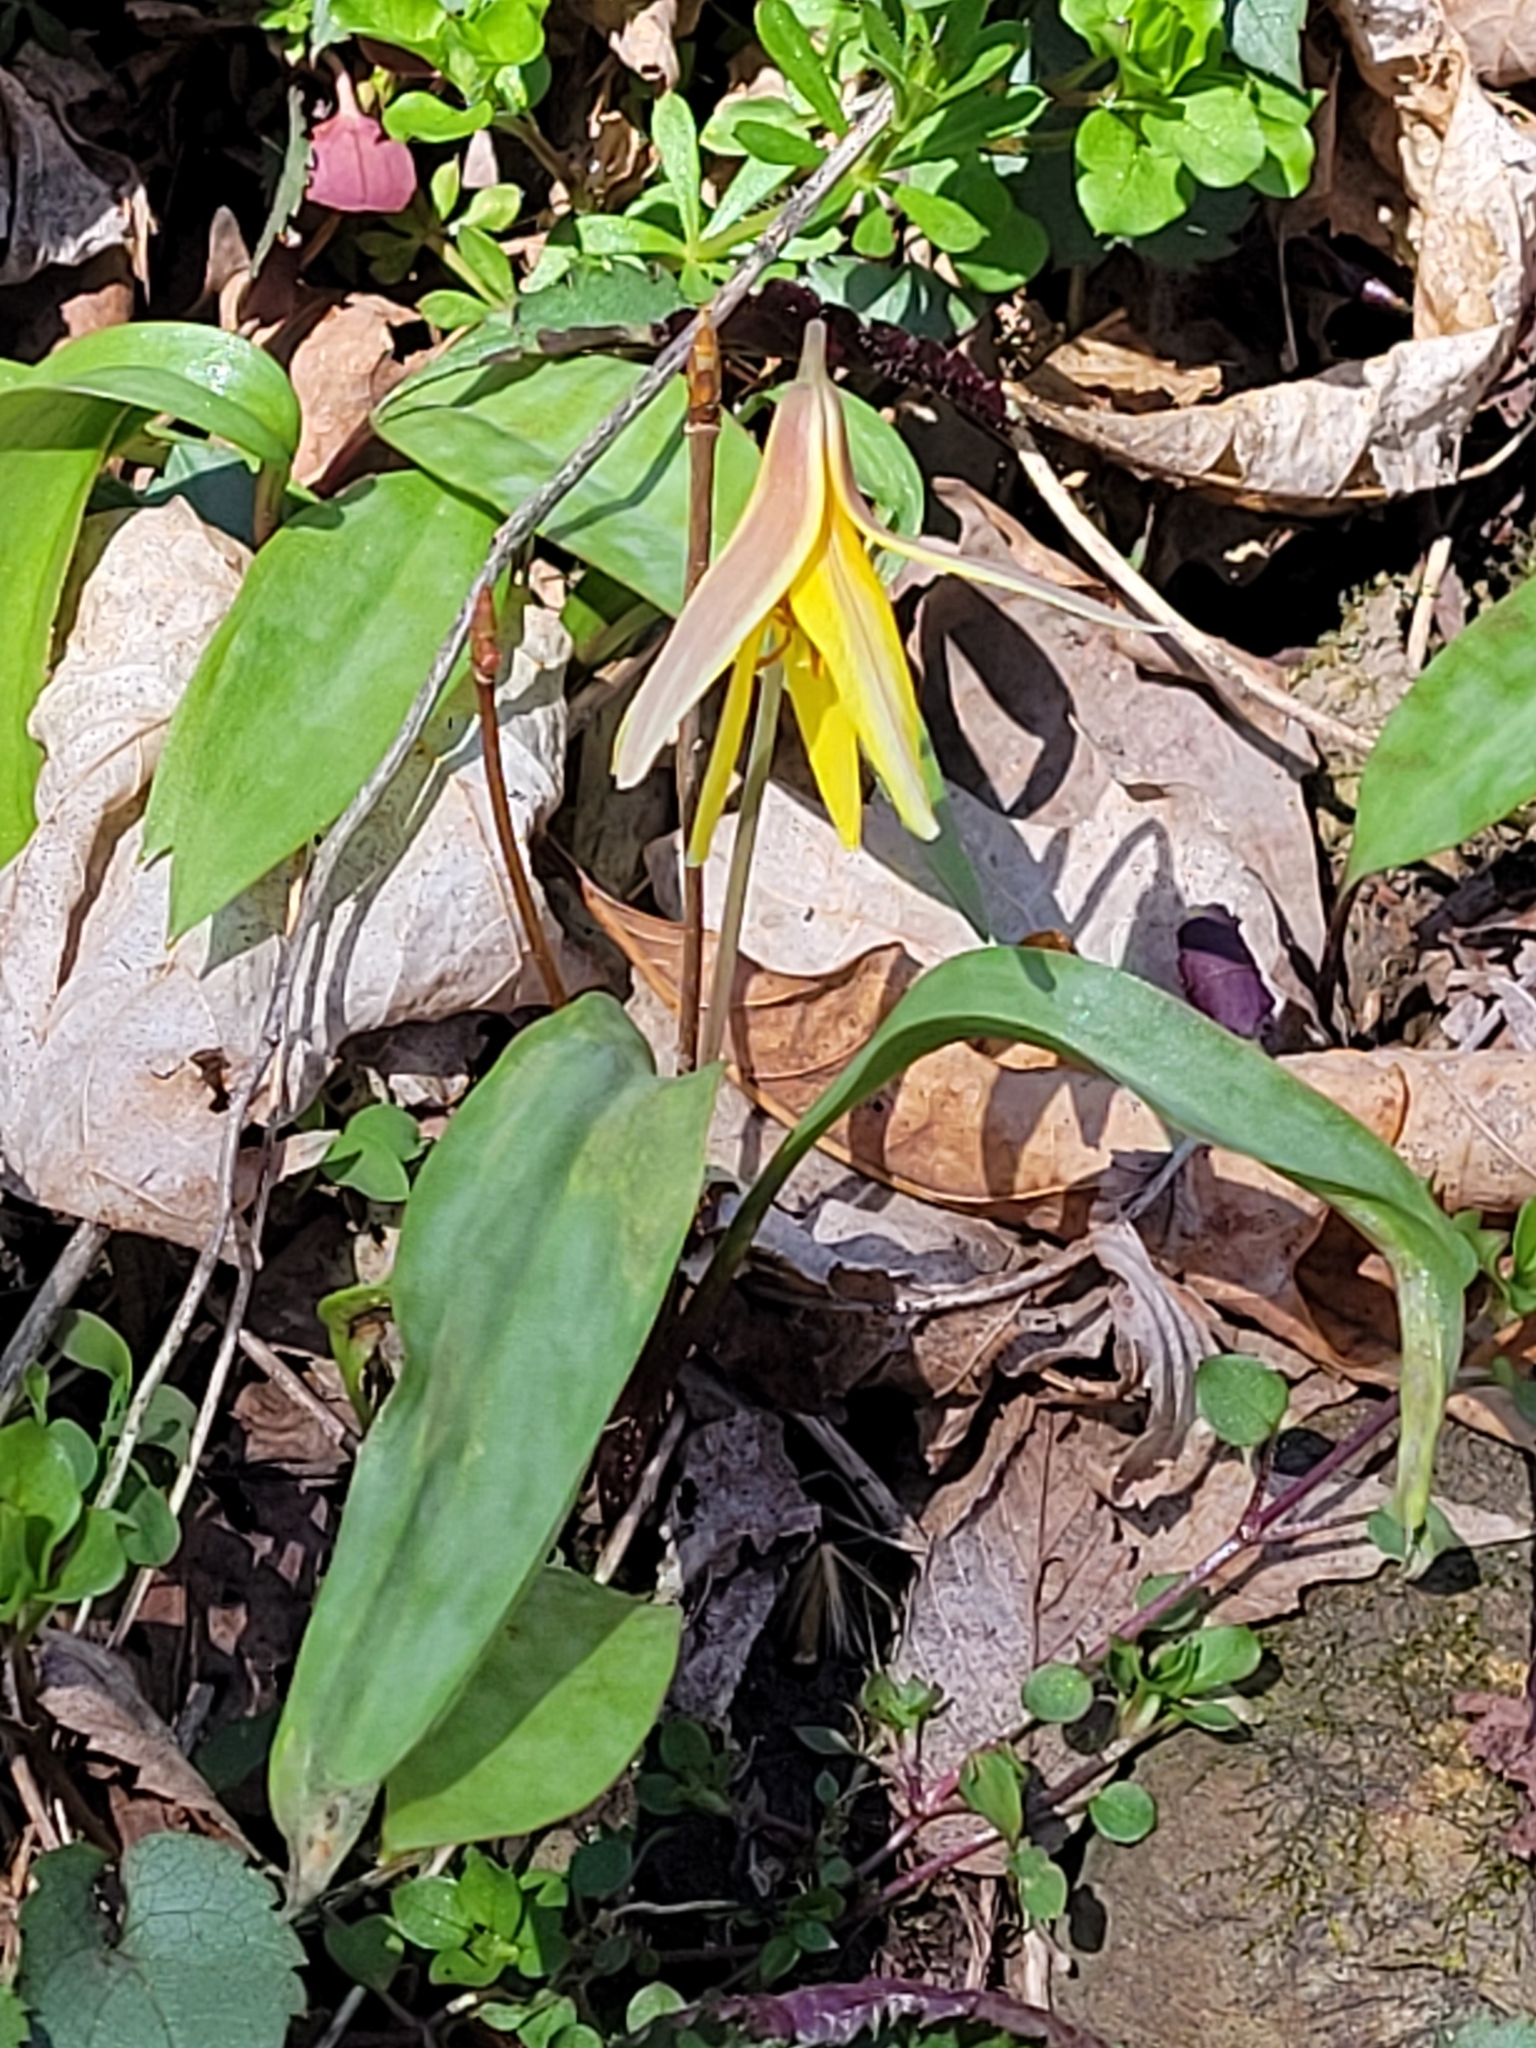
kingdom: Plantae
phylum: Tracheophyta
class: Liliopsida
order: Liliales
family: Liliaceae
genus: Erythronium
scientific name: Erythronium americanum
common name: Yellow adder's-tongue
